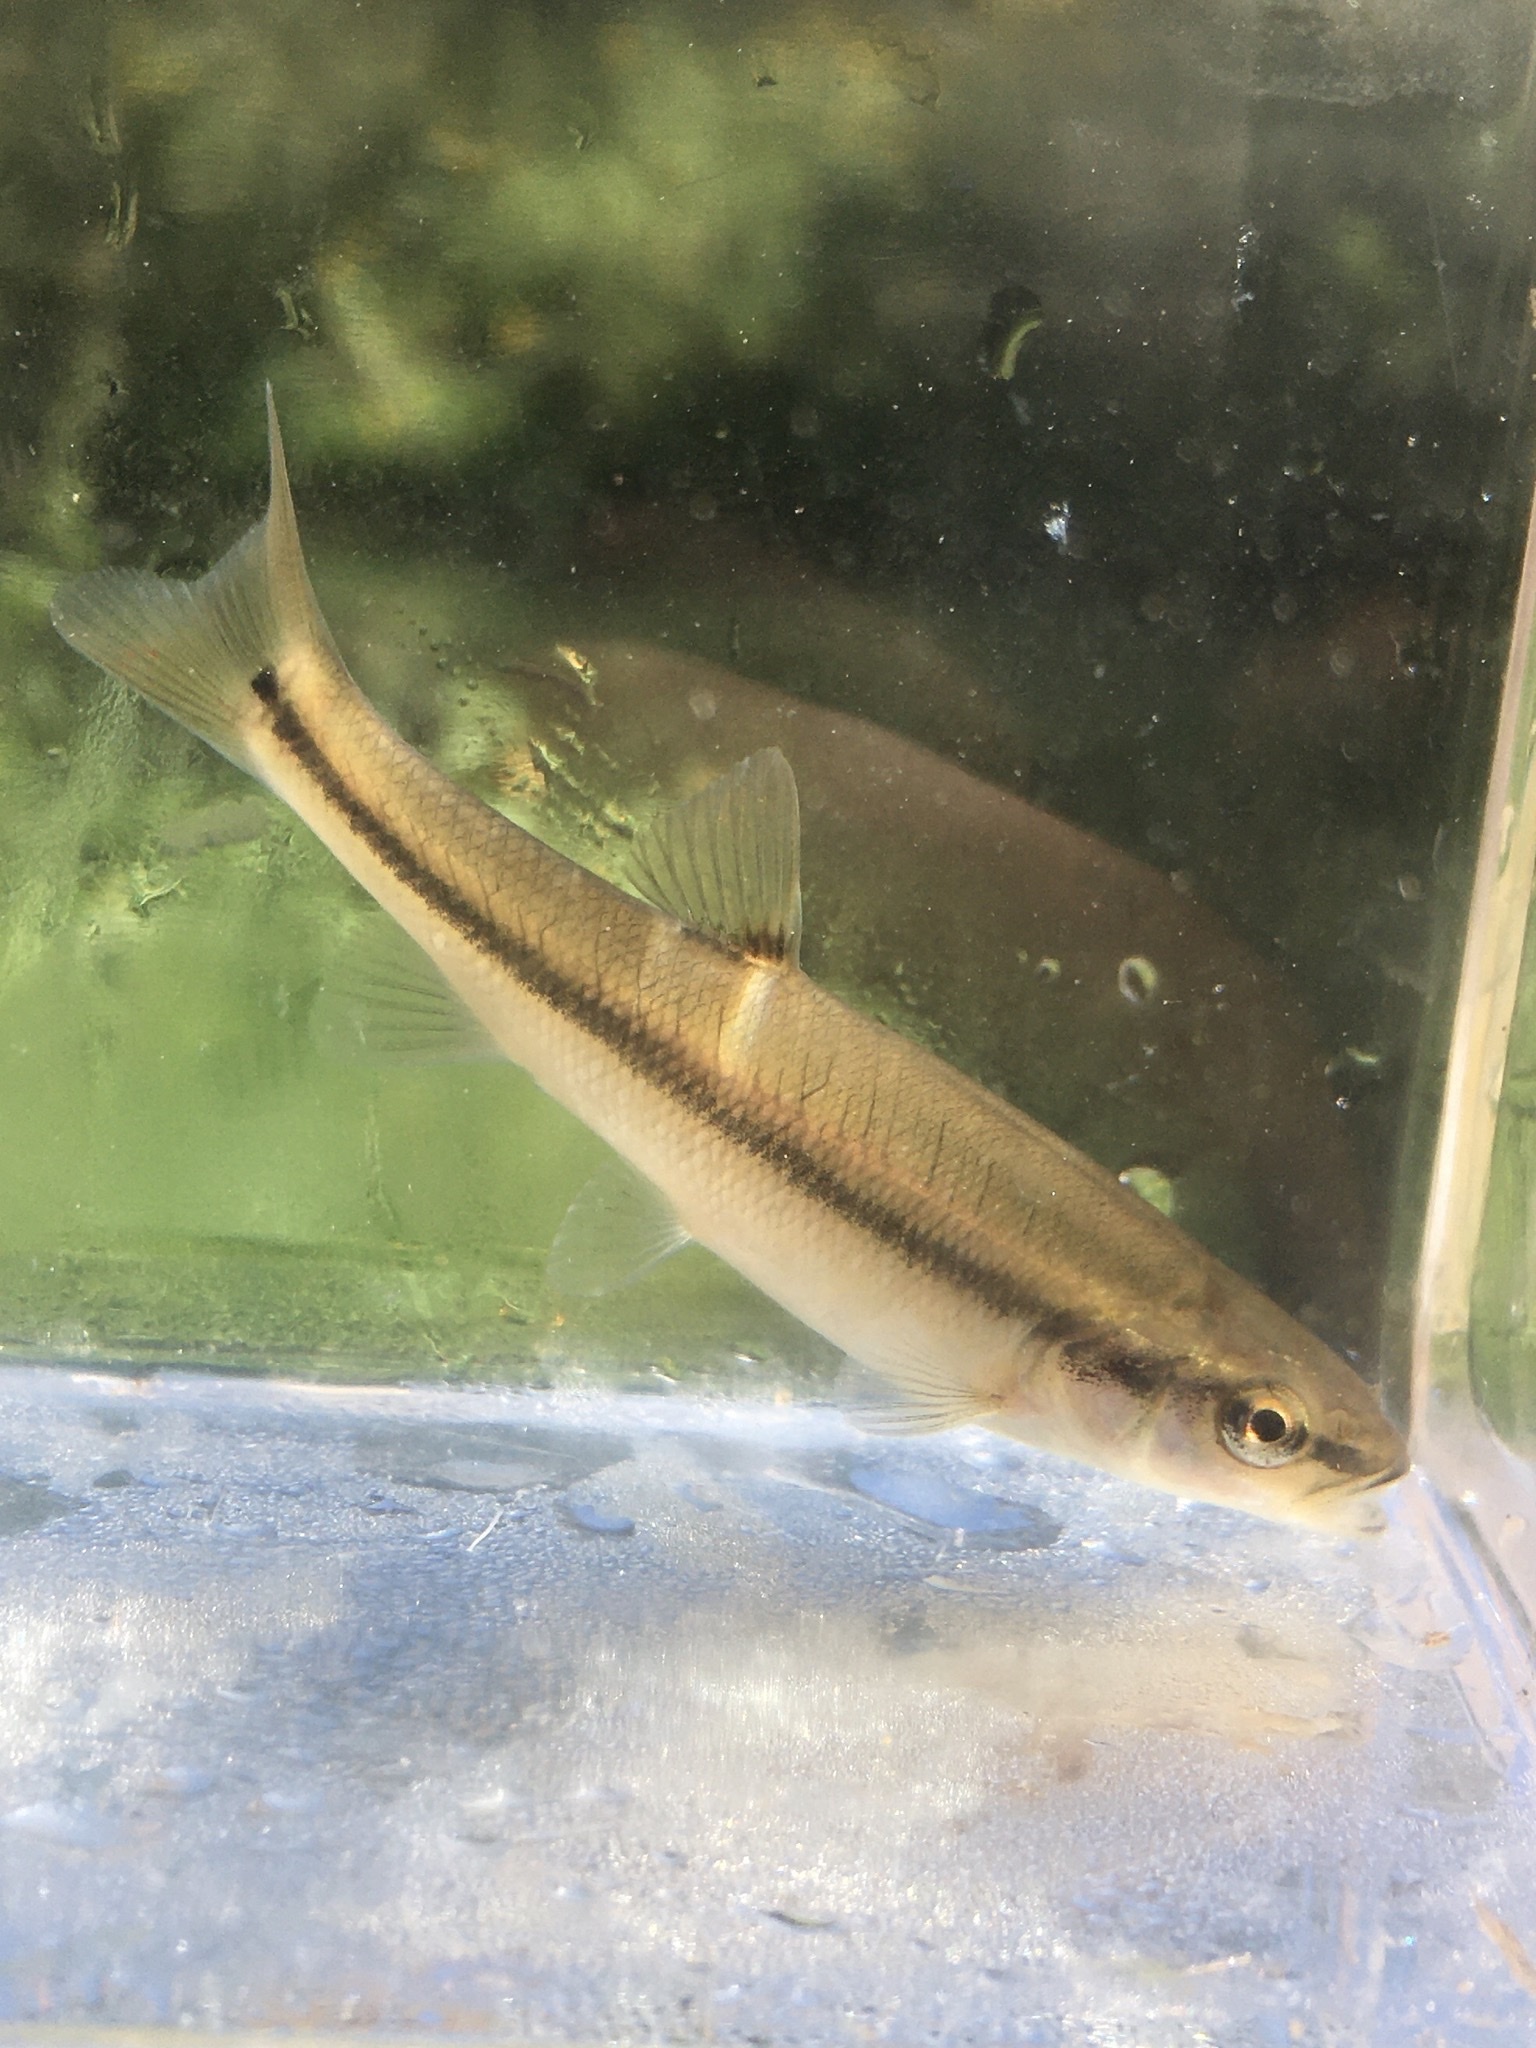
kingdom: Animalia
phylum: Chordata
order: Cypriniformes
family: Cyprinidae
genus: Semotilus
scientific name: Semotilus atromaculatus
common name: Creek chub
